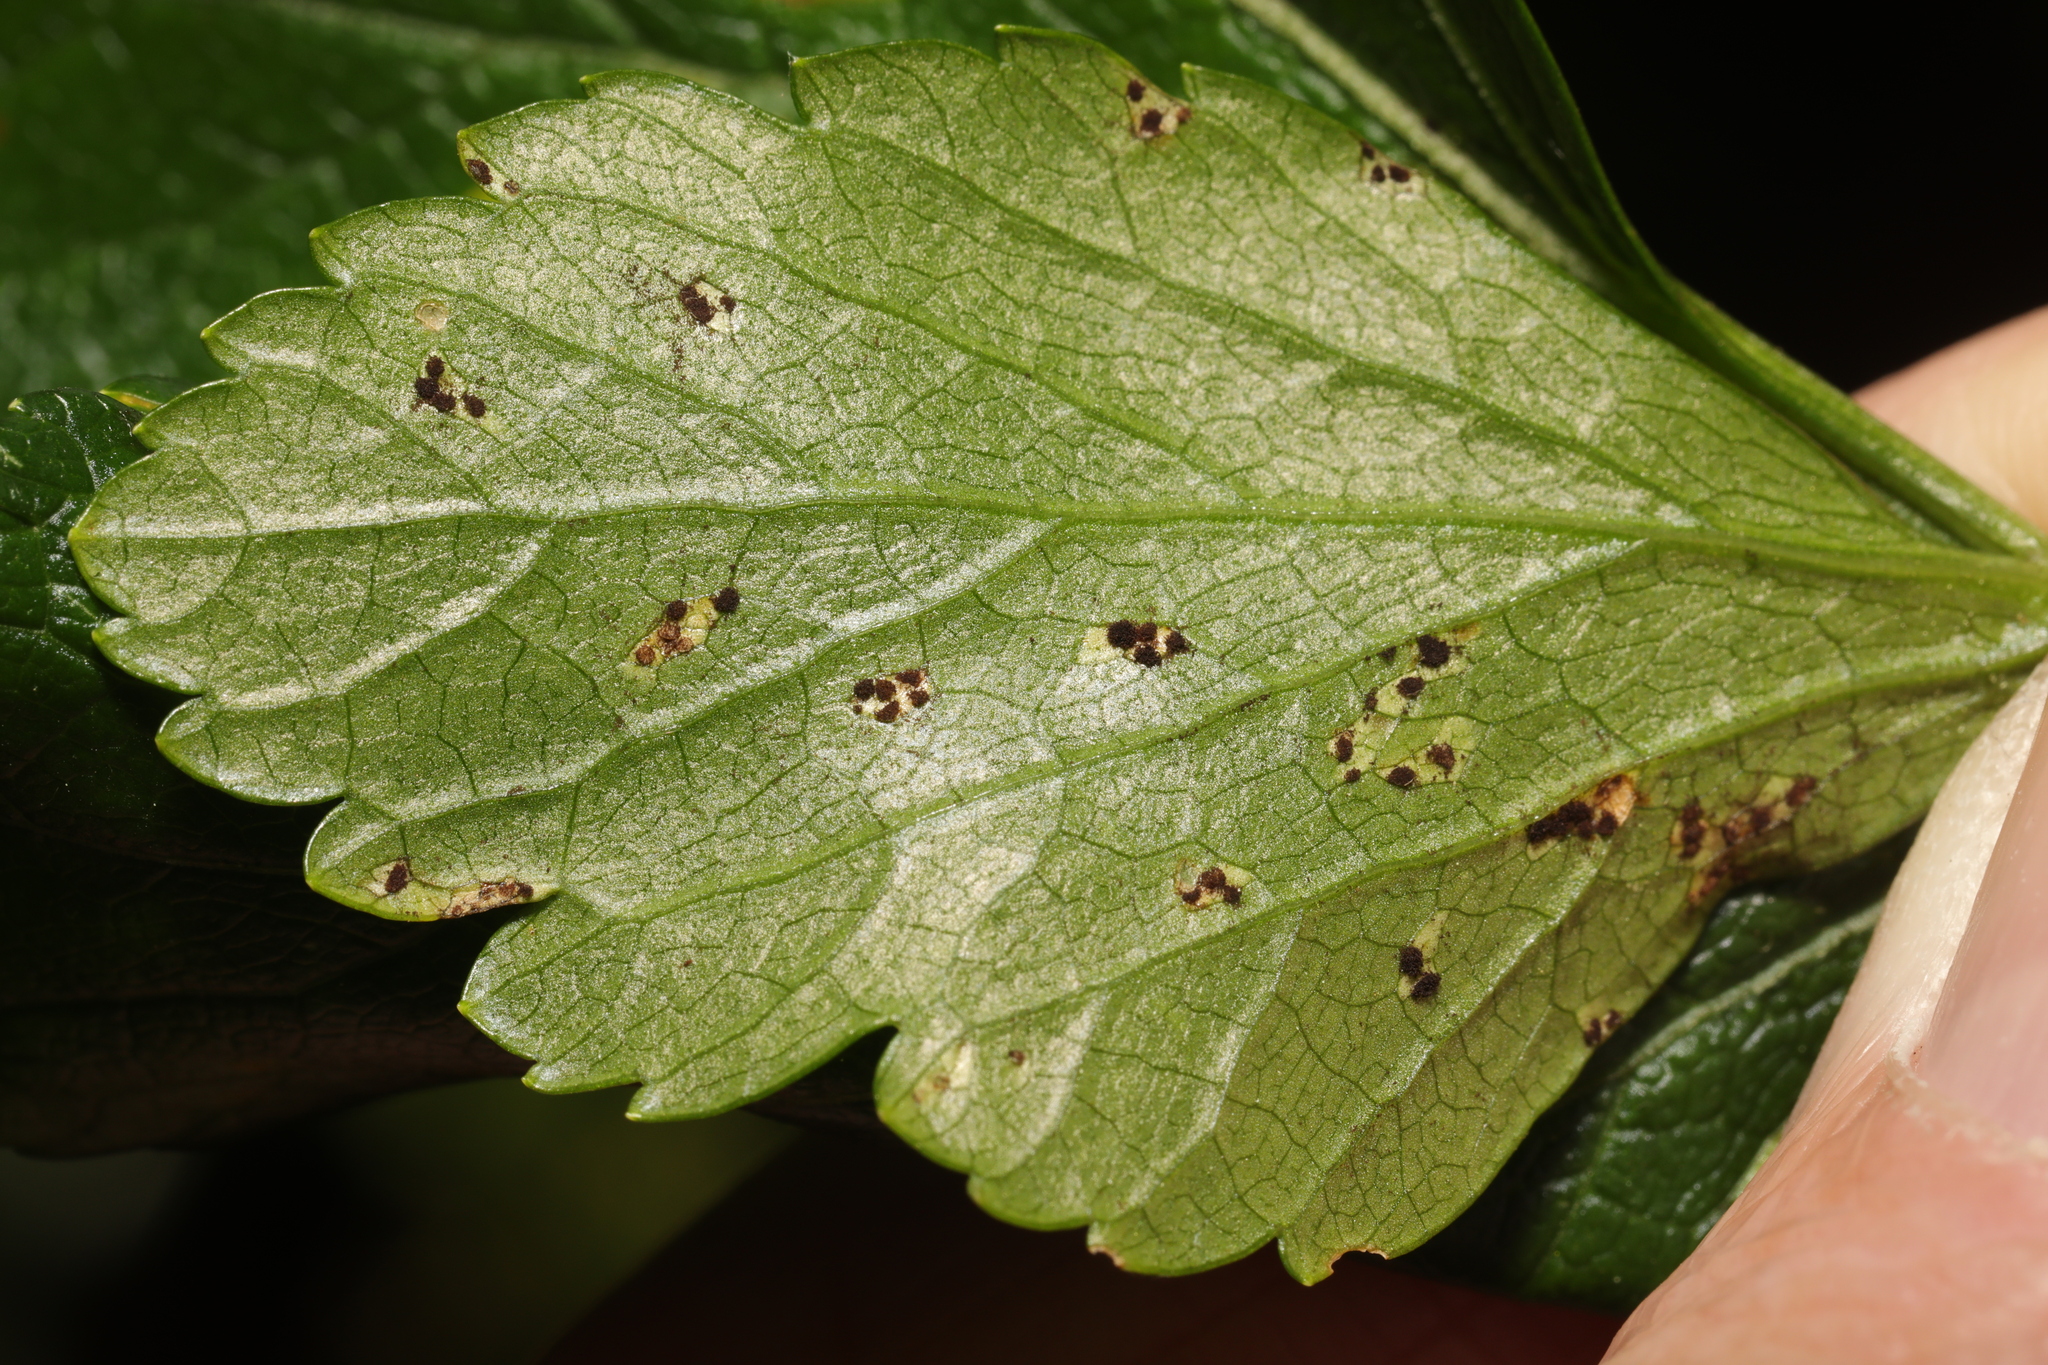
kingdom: Fungi
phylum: Basidiomycota
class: Pucciniomycetes
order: Pucciniales
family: Pucciniaceae
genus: Puccinia
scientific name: Puccinia smyrnii
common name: Alexanders rust
